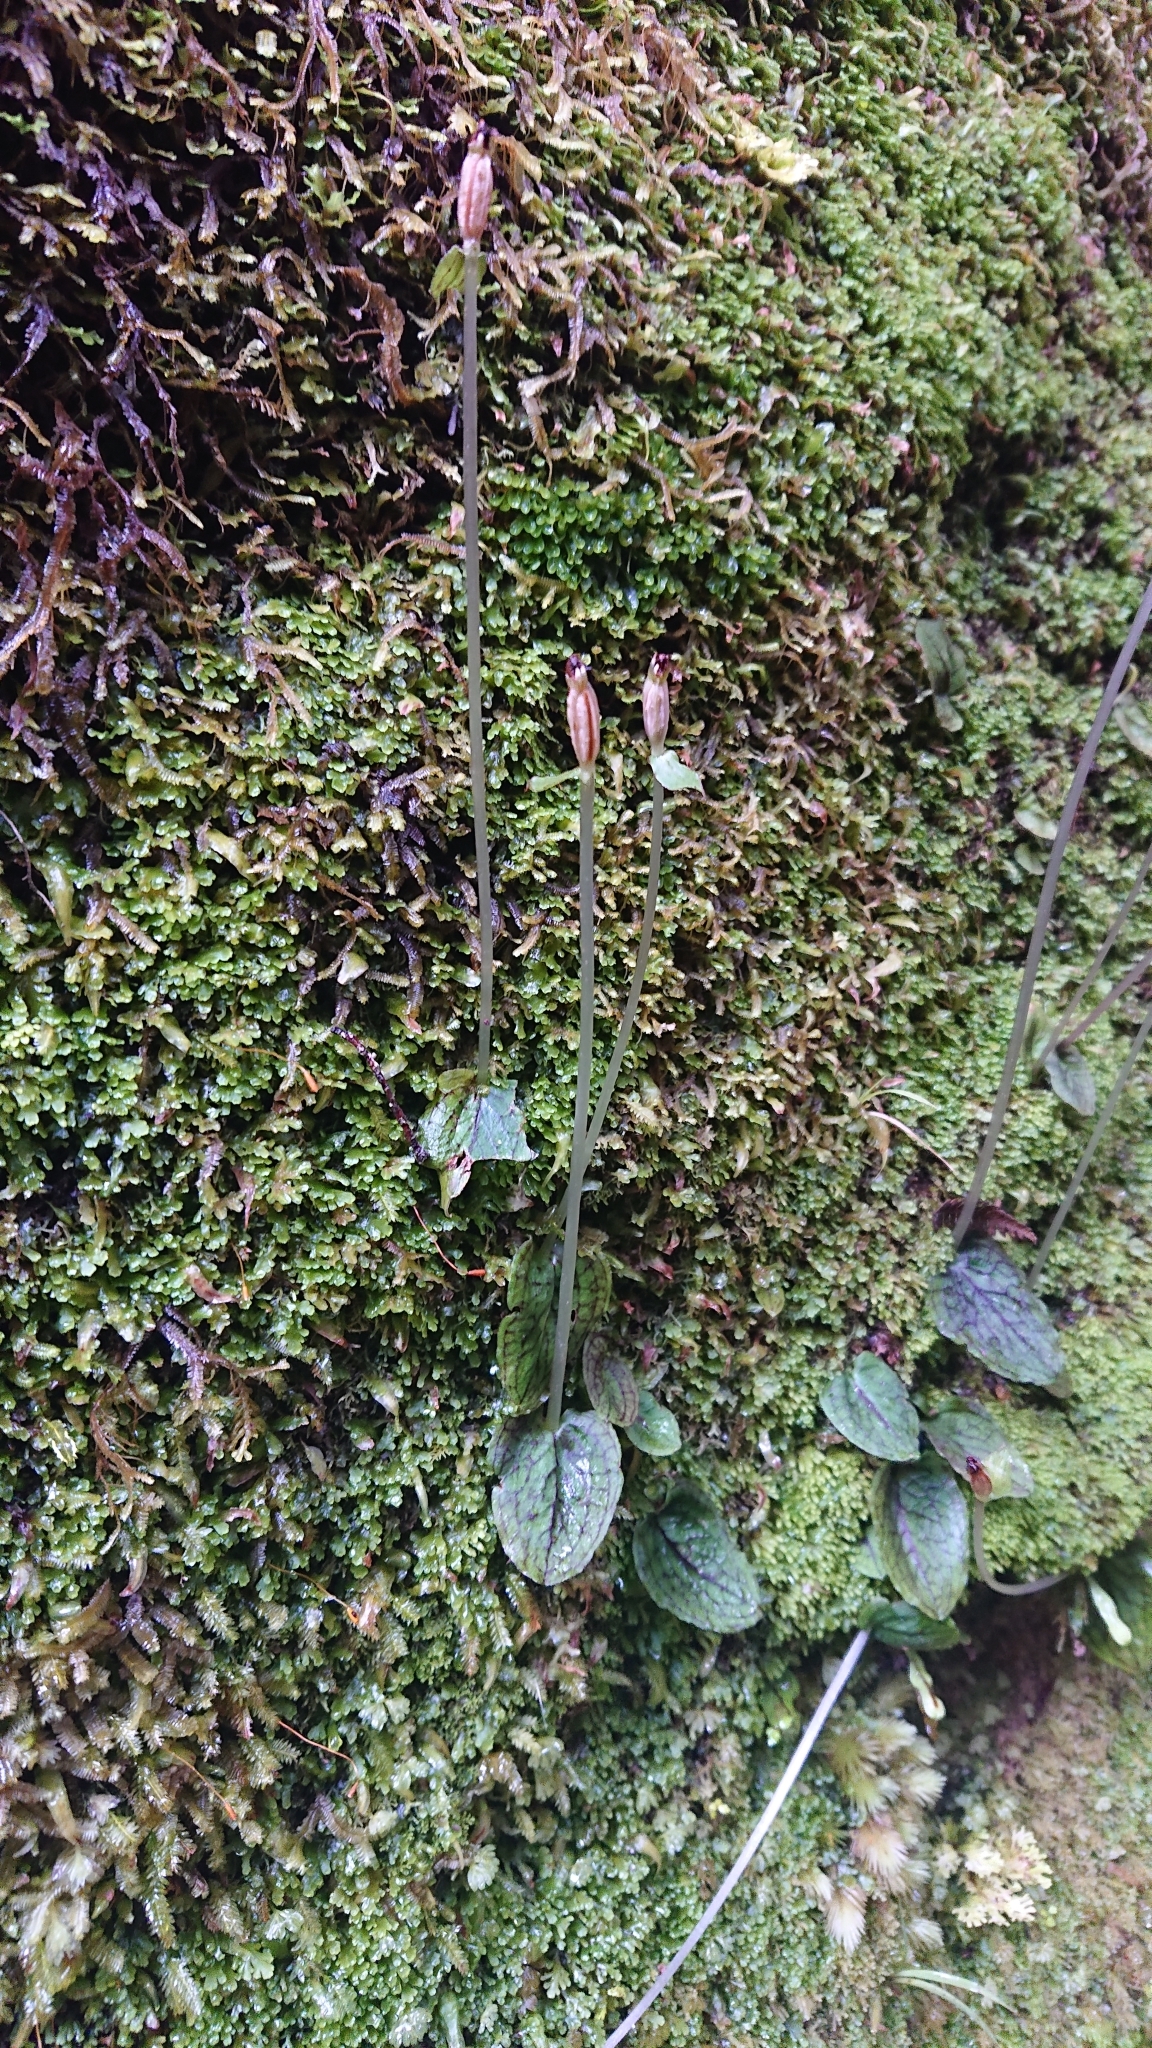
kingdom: Plantae
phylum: Tracheophyta
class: Liliopsida
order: Asparagales
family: Orchidaceae
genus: Corybas
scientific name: Corybas oblongus
